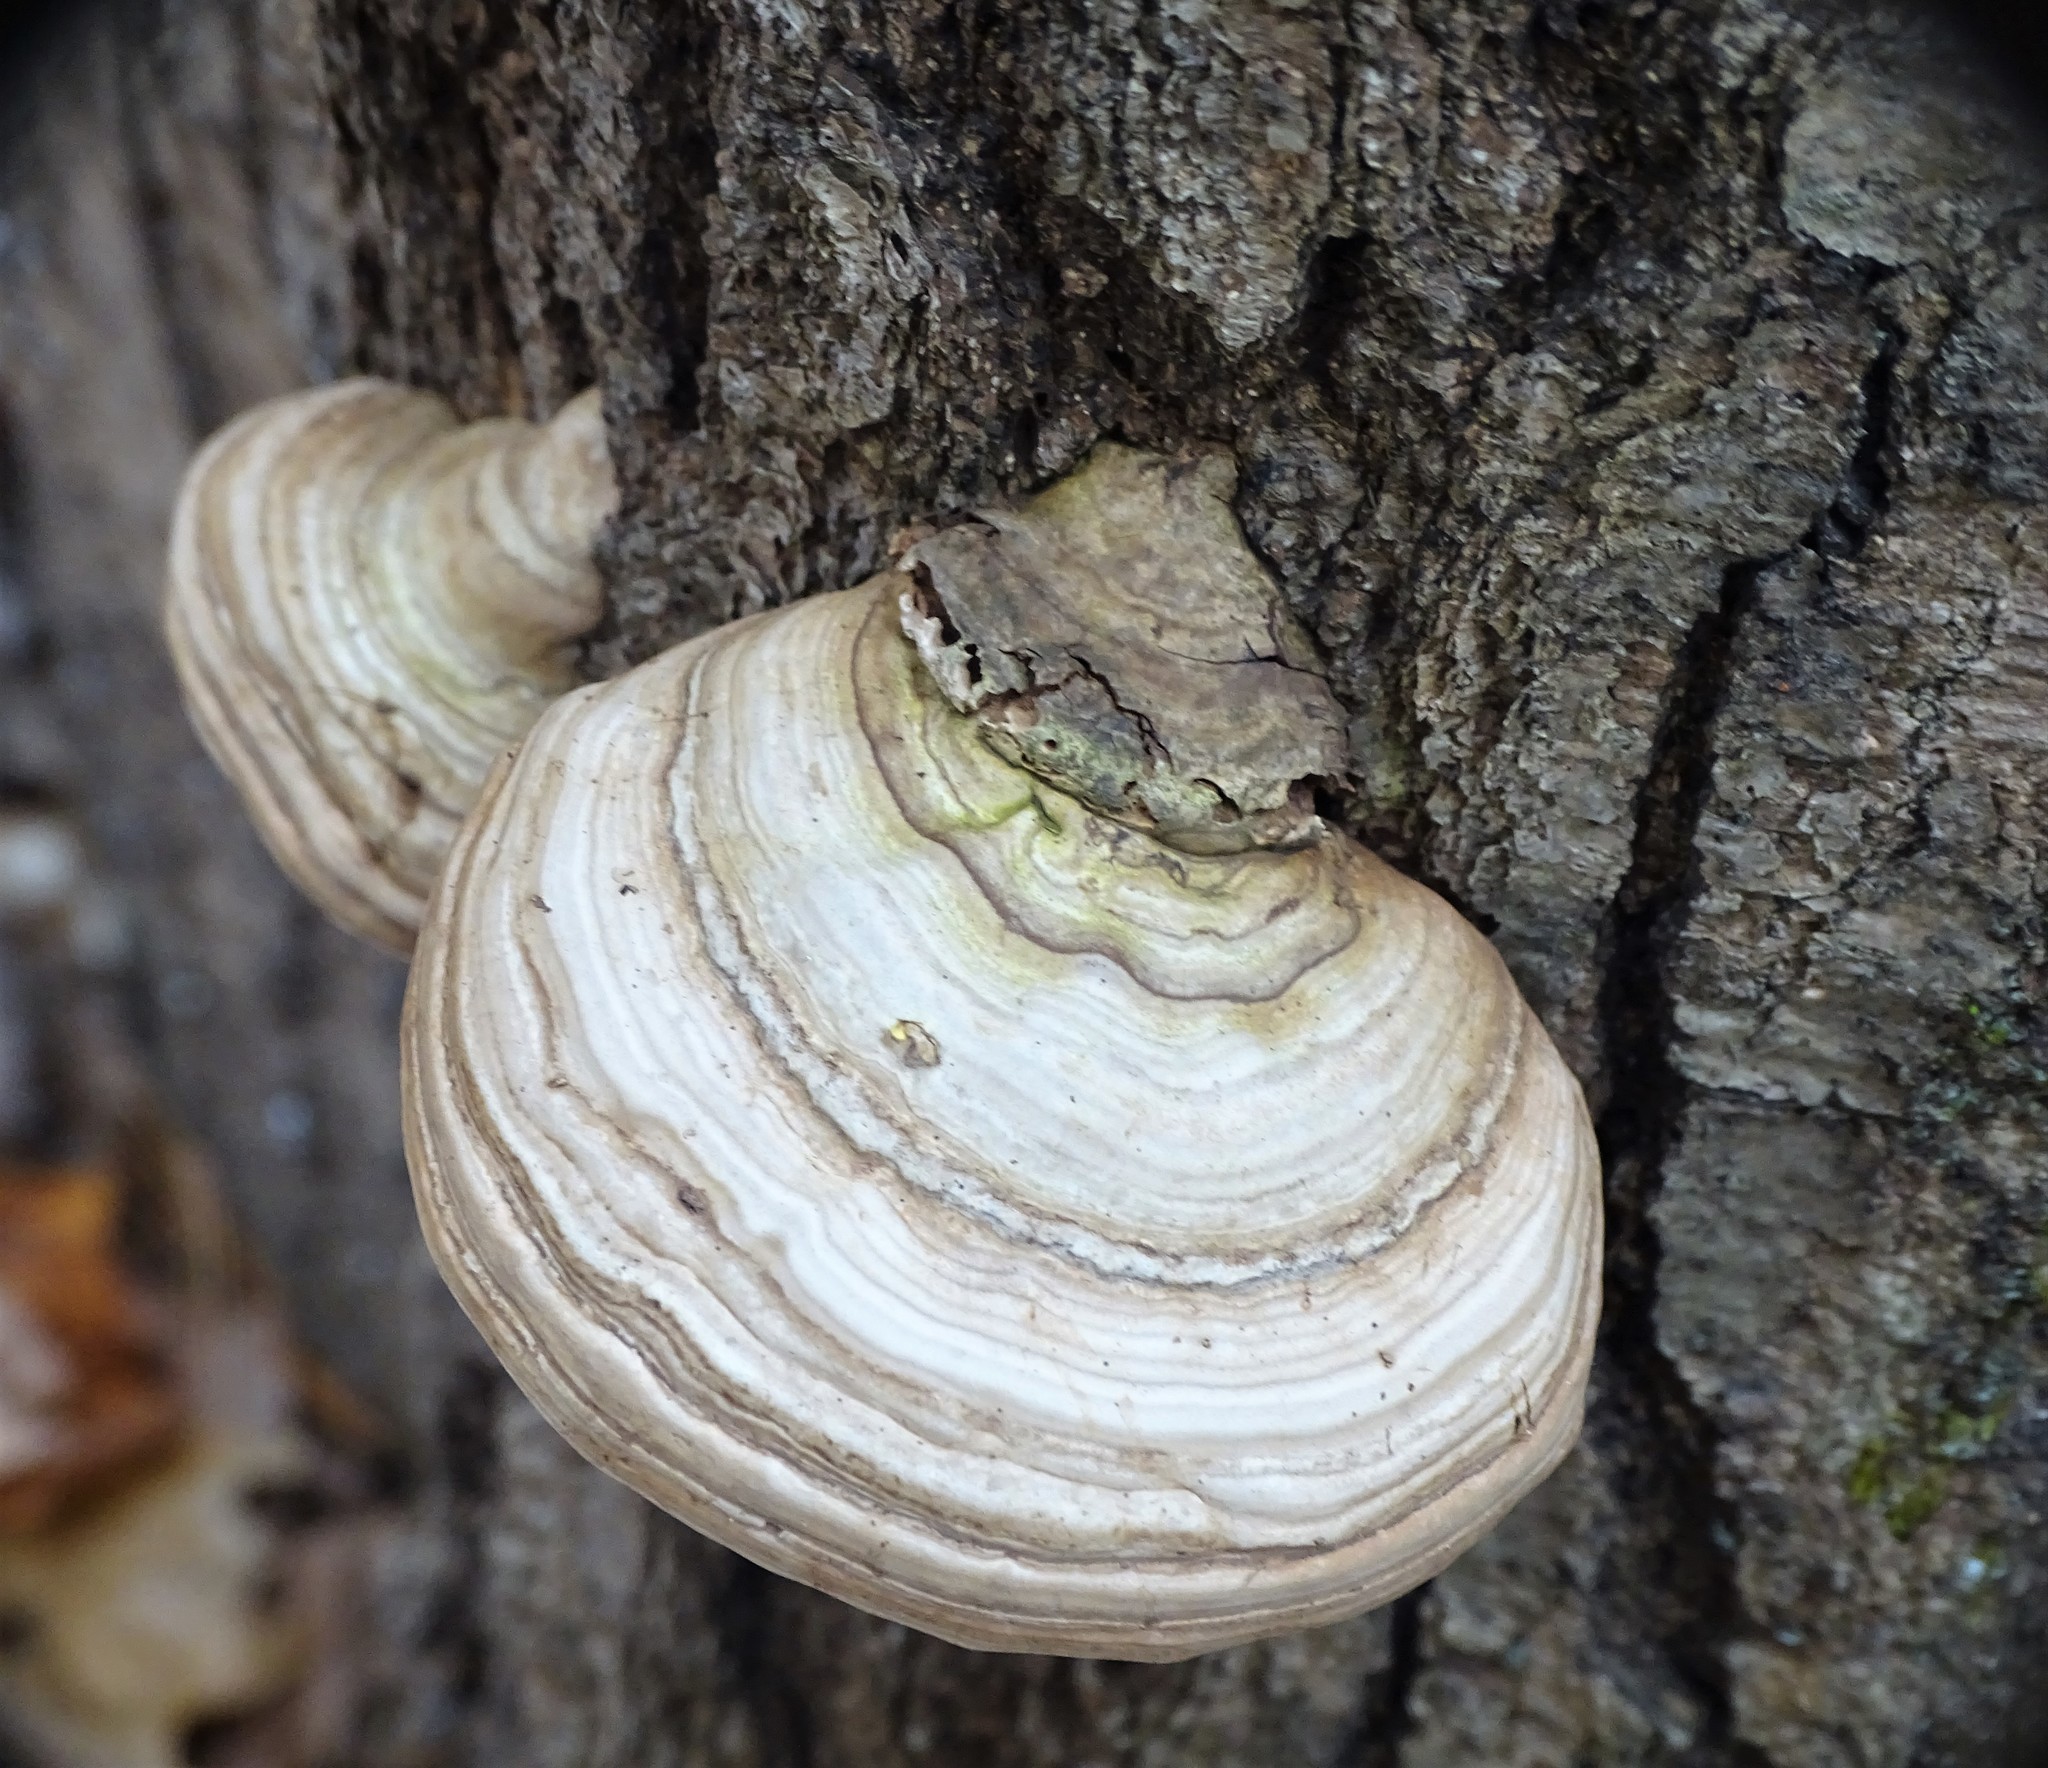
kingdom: Fungi
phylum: Basidiomycota
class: Agaricomycetes
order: Polyporales
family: Polyporaceae
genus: Fomes
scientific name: Fomes fomentarius
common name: Hoof fungus
